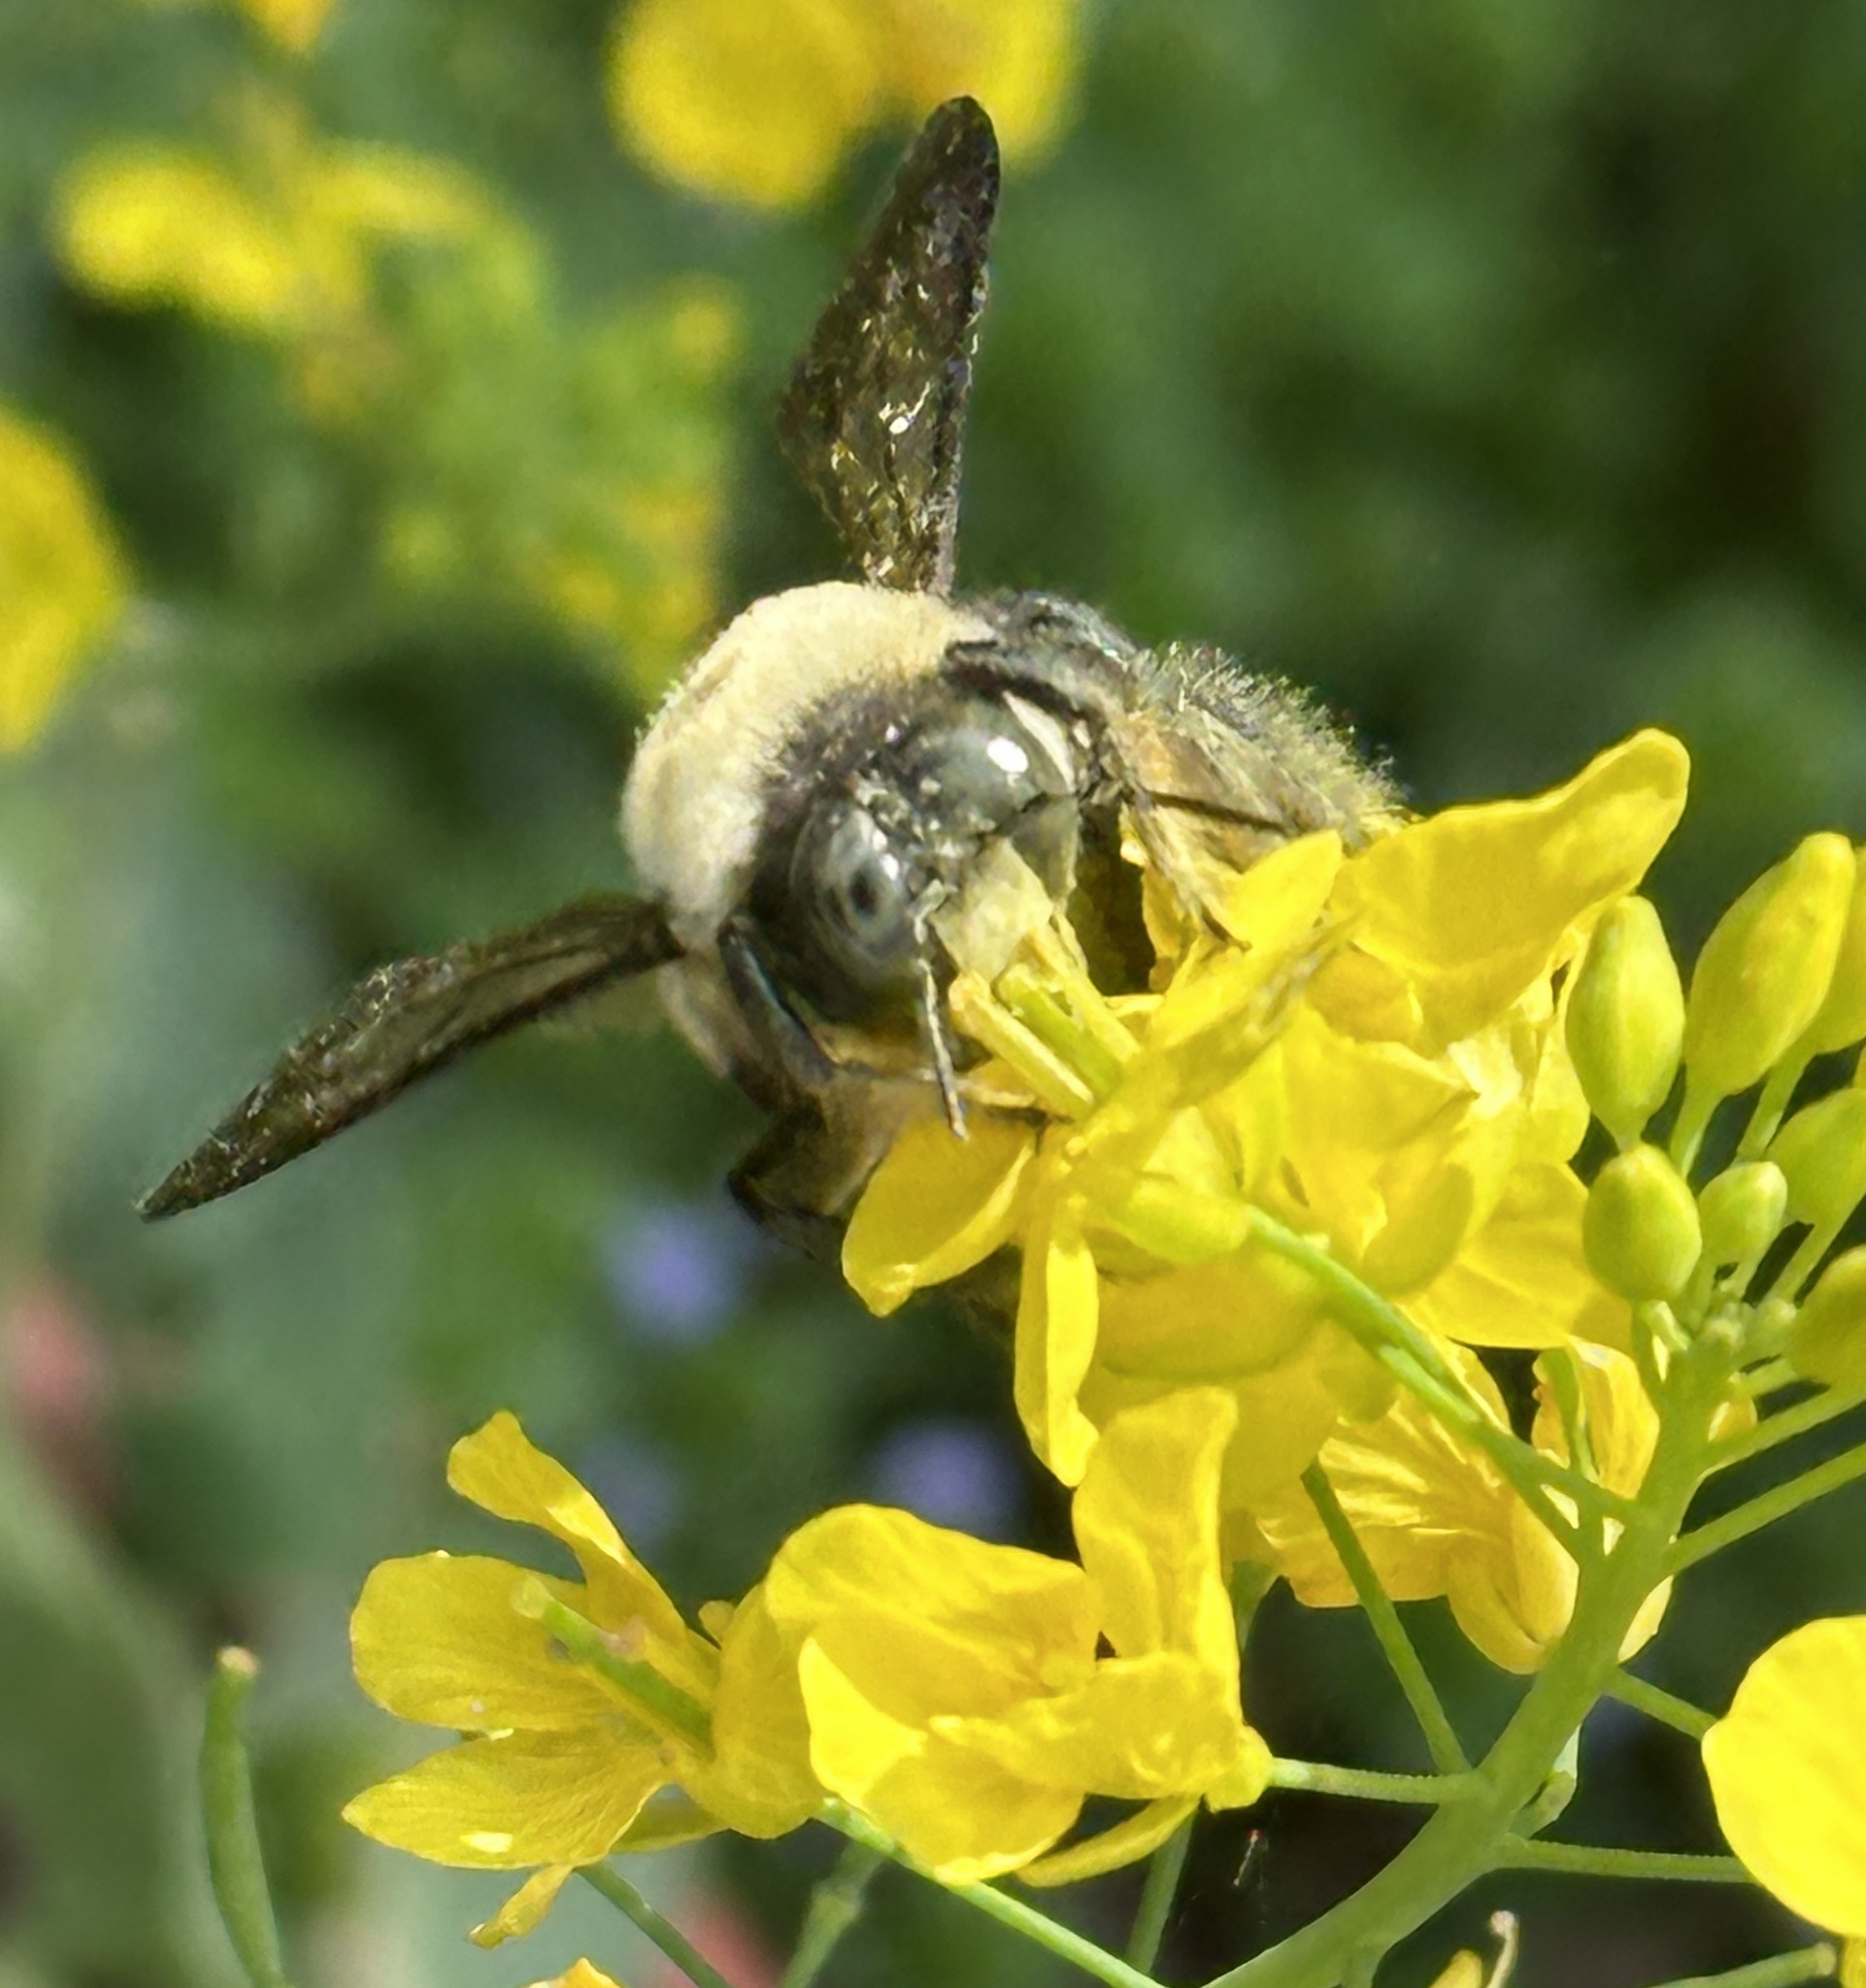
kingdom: Animalia
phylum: Arthropoda
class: Insecta
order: Hymenoptera
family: Apidae
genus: Xylocopa
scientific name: Xylocopa virginica
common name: Carpenter bee
